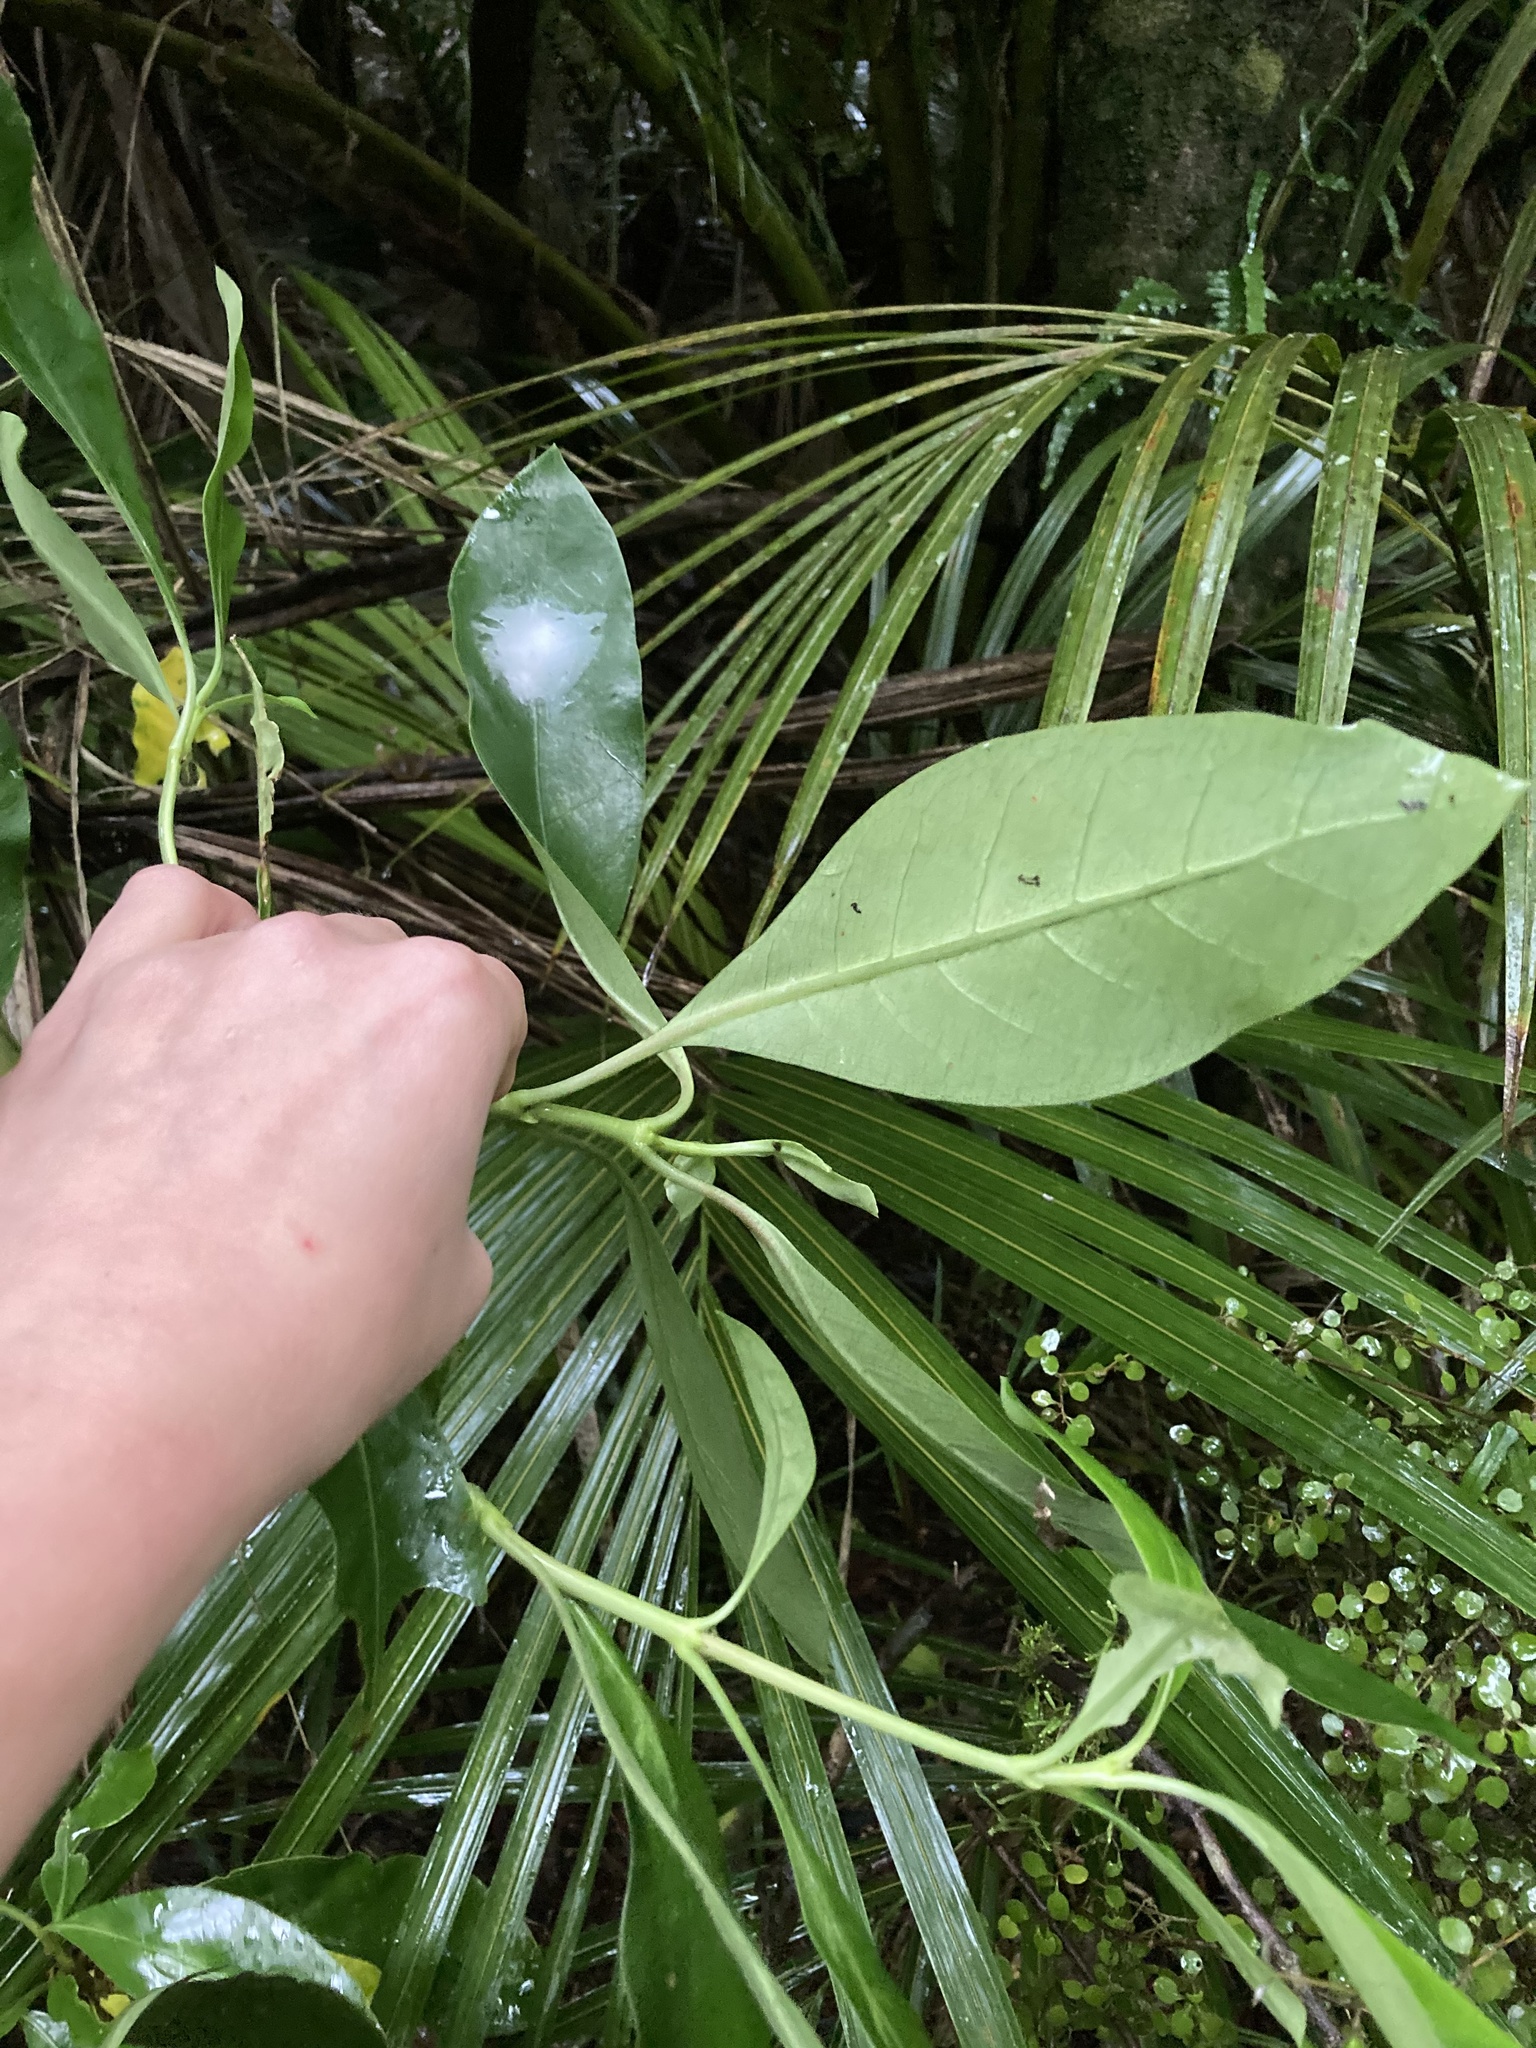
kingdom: Plantae
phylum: Tracheophyta
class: Magnoliopsida
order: Gentianales
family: Rubiaceae
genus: Coprosma
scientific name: Coprosma lucida
